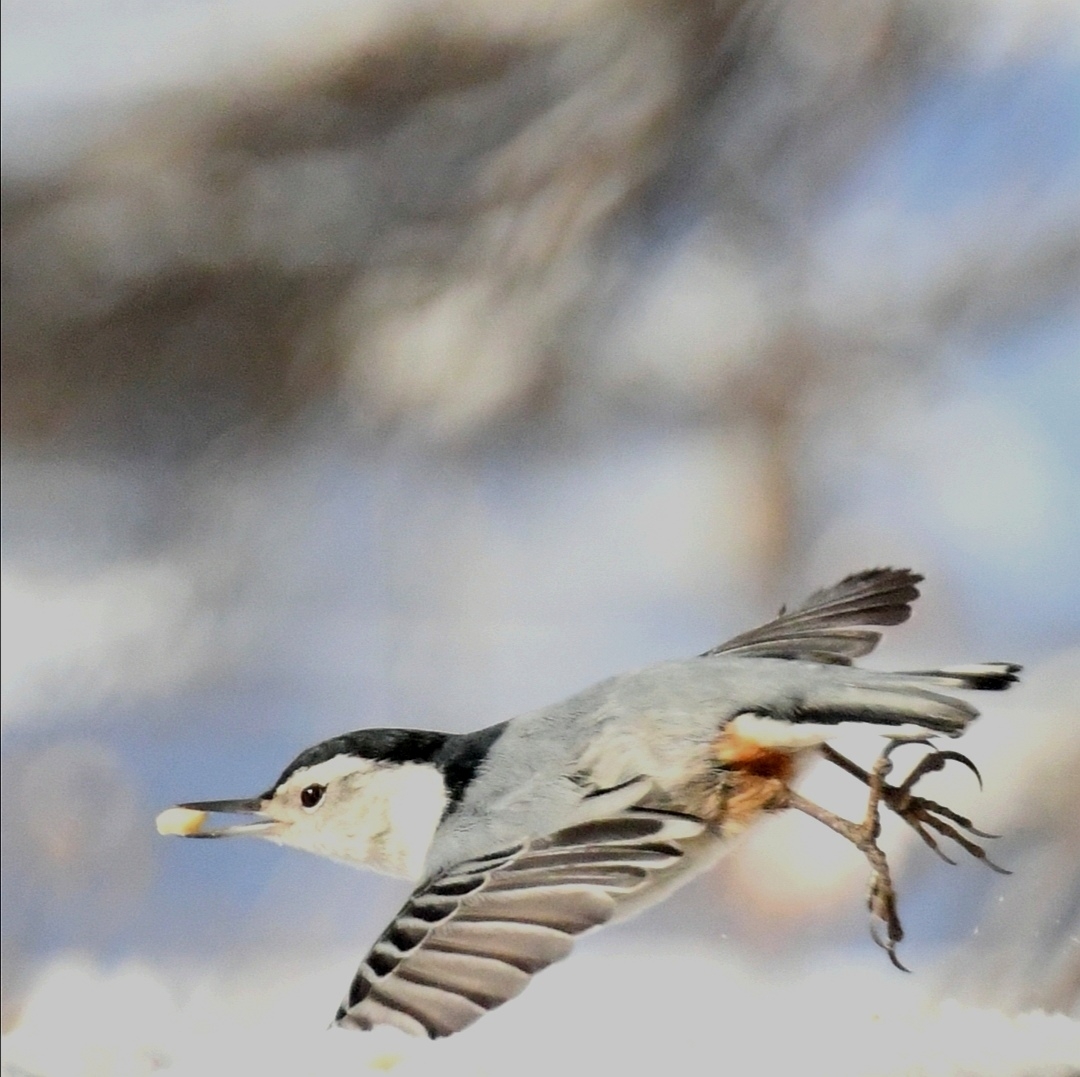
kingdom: Animalia
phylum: Chordata
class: Aves
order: Passeriformes
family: Sittidae
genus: Sitta
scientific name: Sitta carolinensis
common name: White-breasted nuthatch
